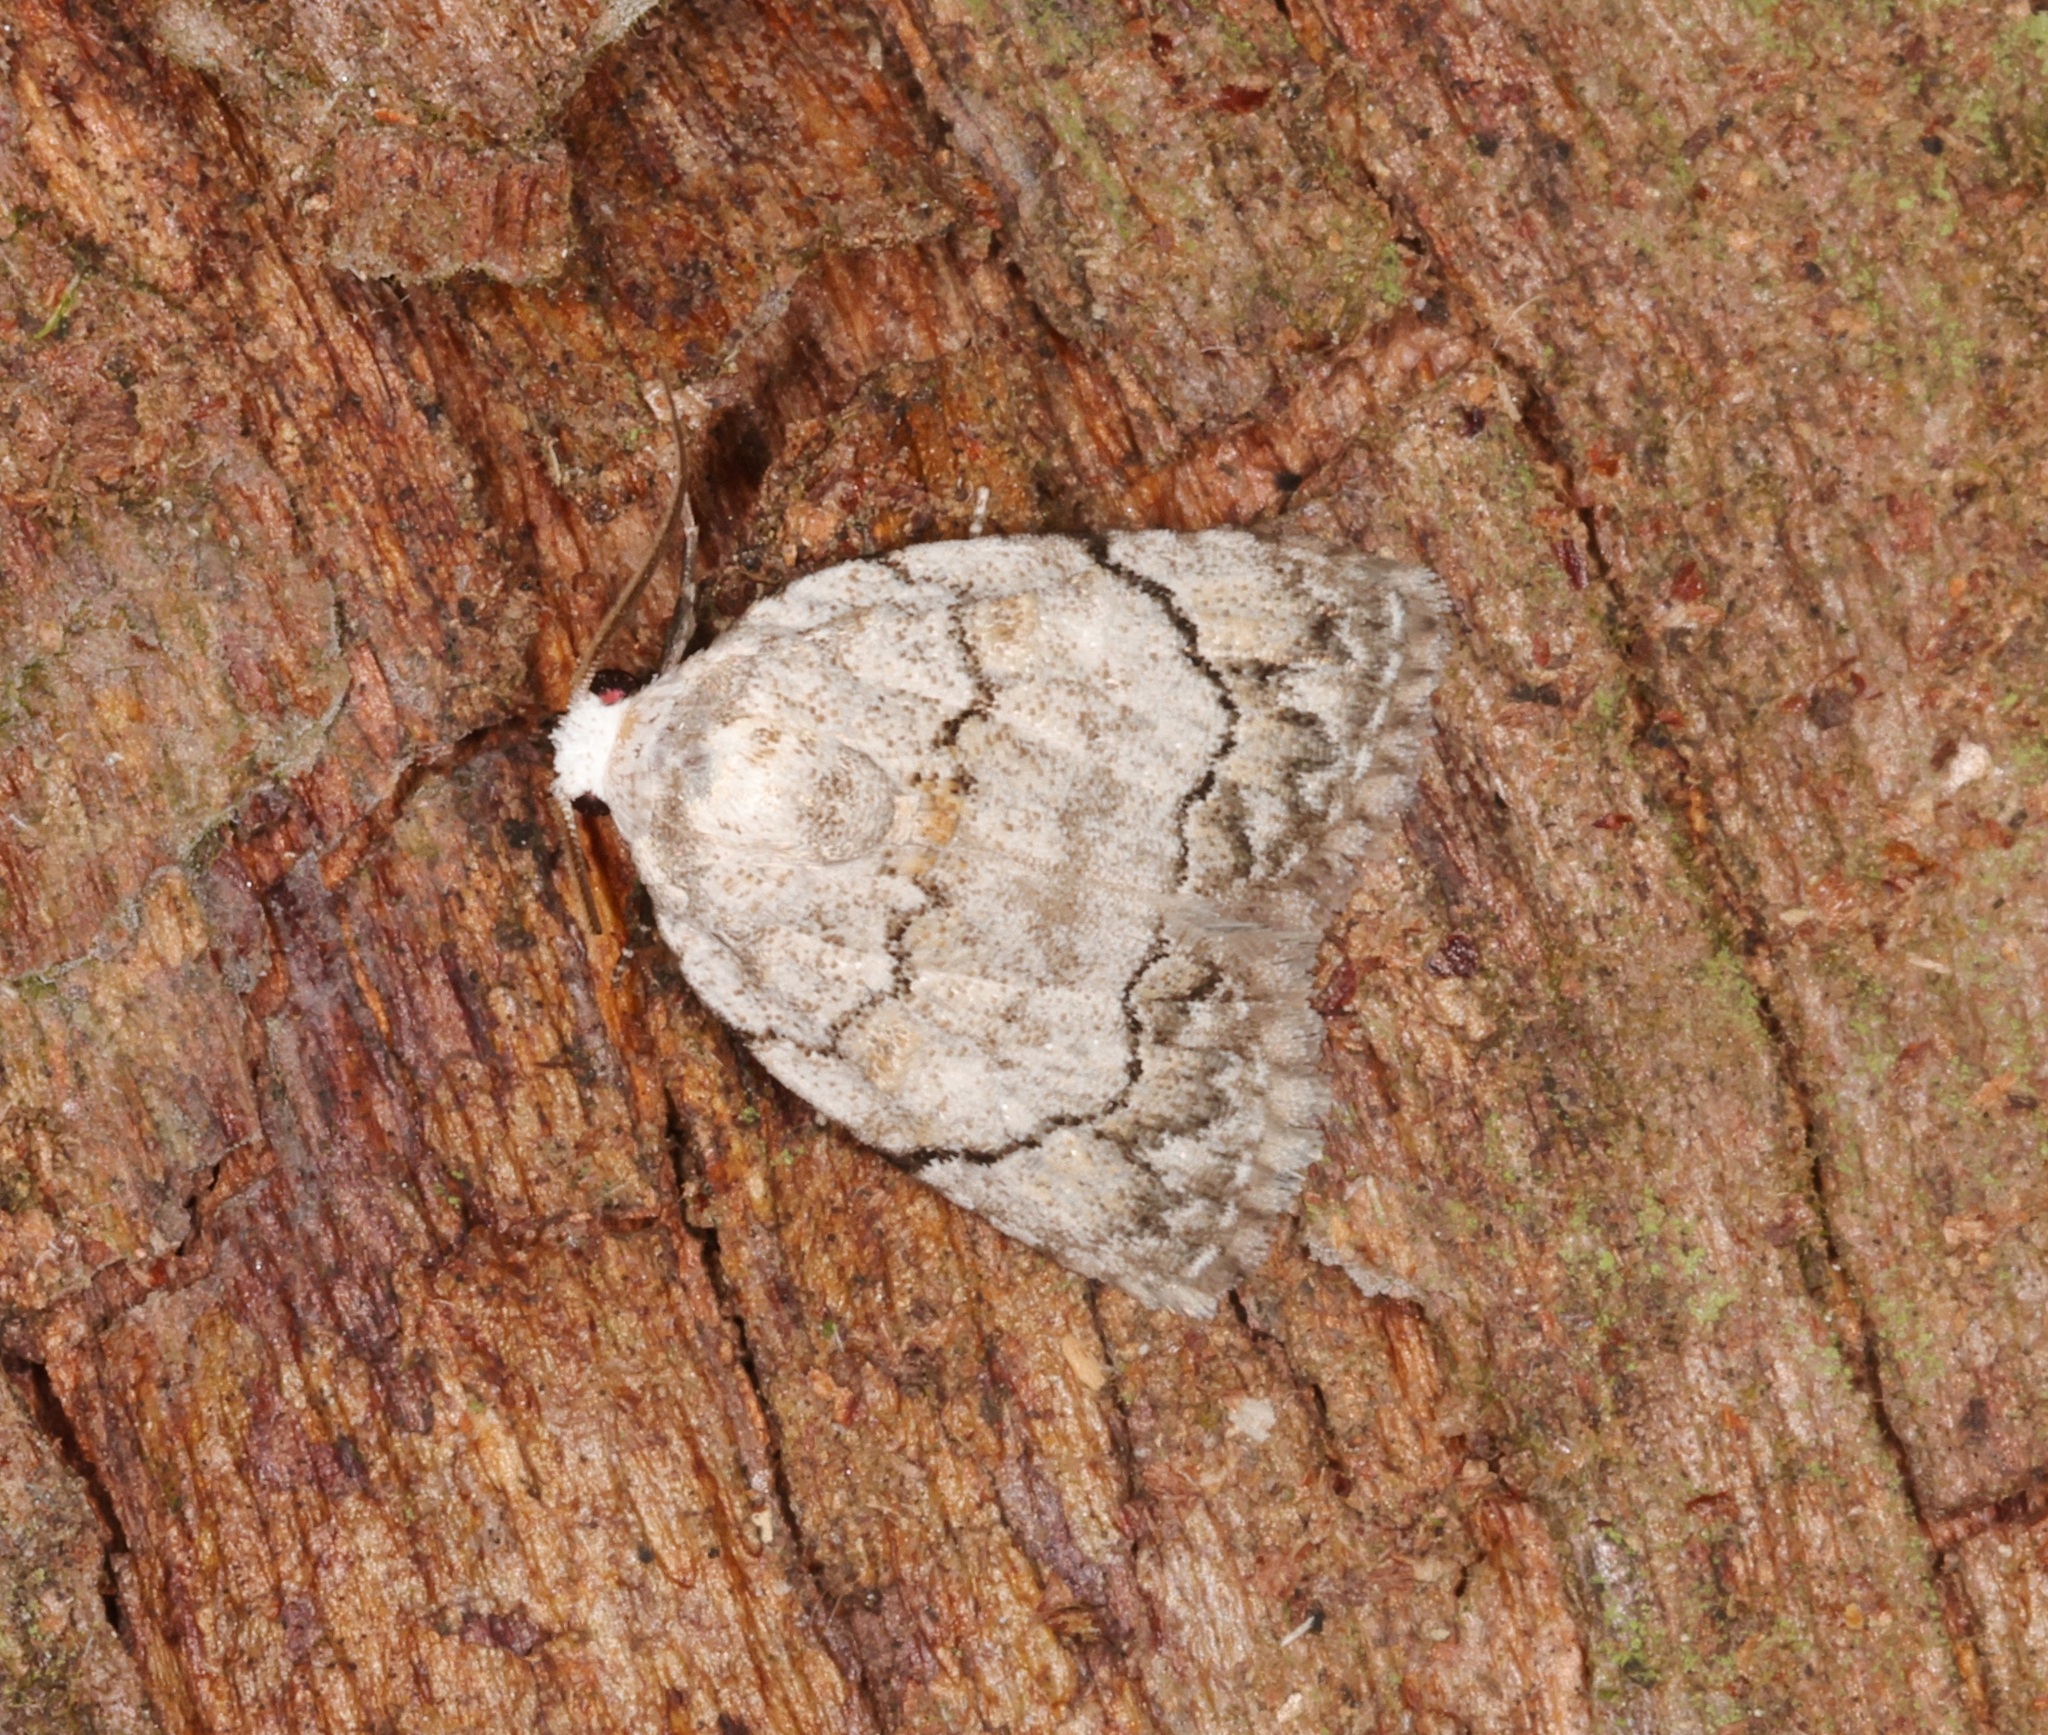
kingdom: Animalia
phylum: Arthropoda
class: Insecta
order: Lepidoptera
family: Nolidae
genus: Melanographia
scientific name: Melanographia flexilineata
